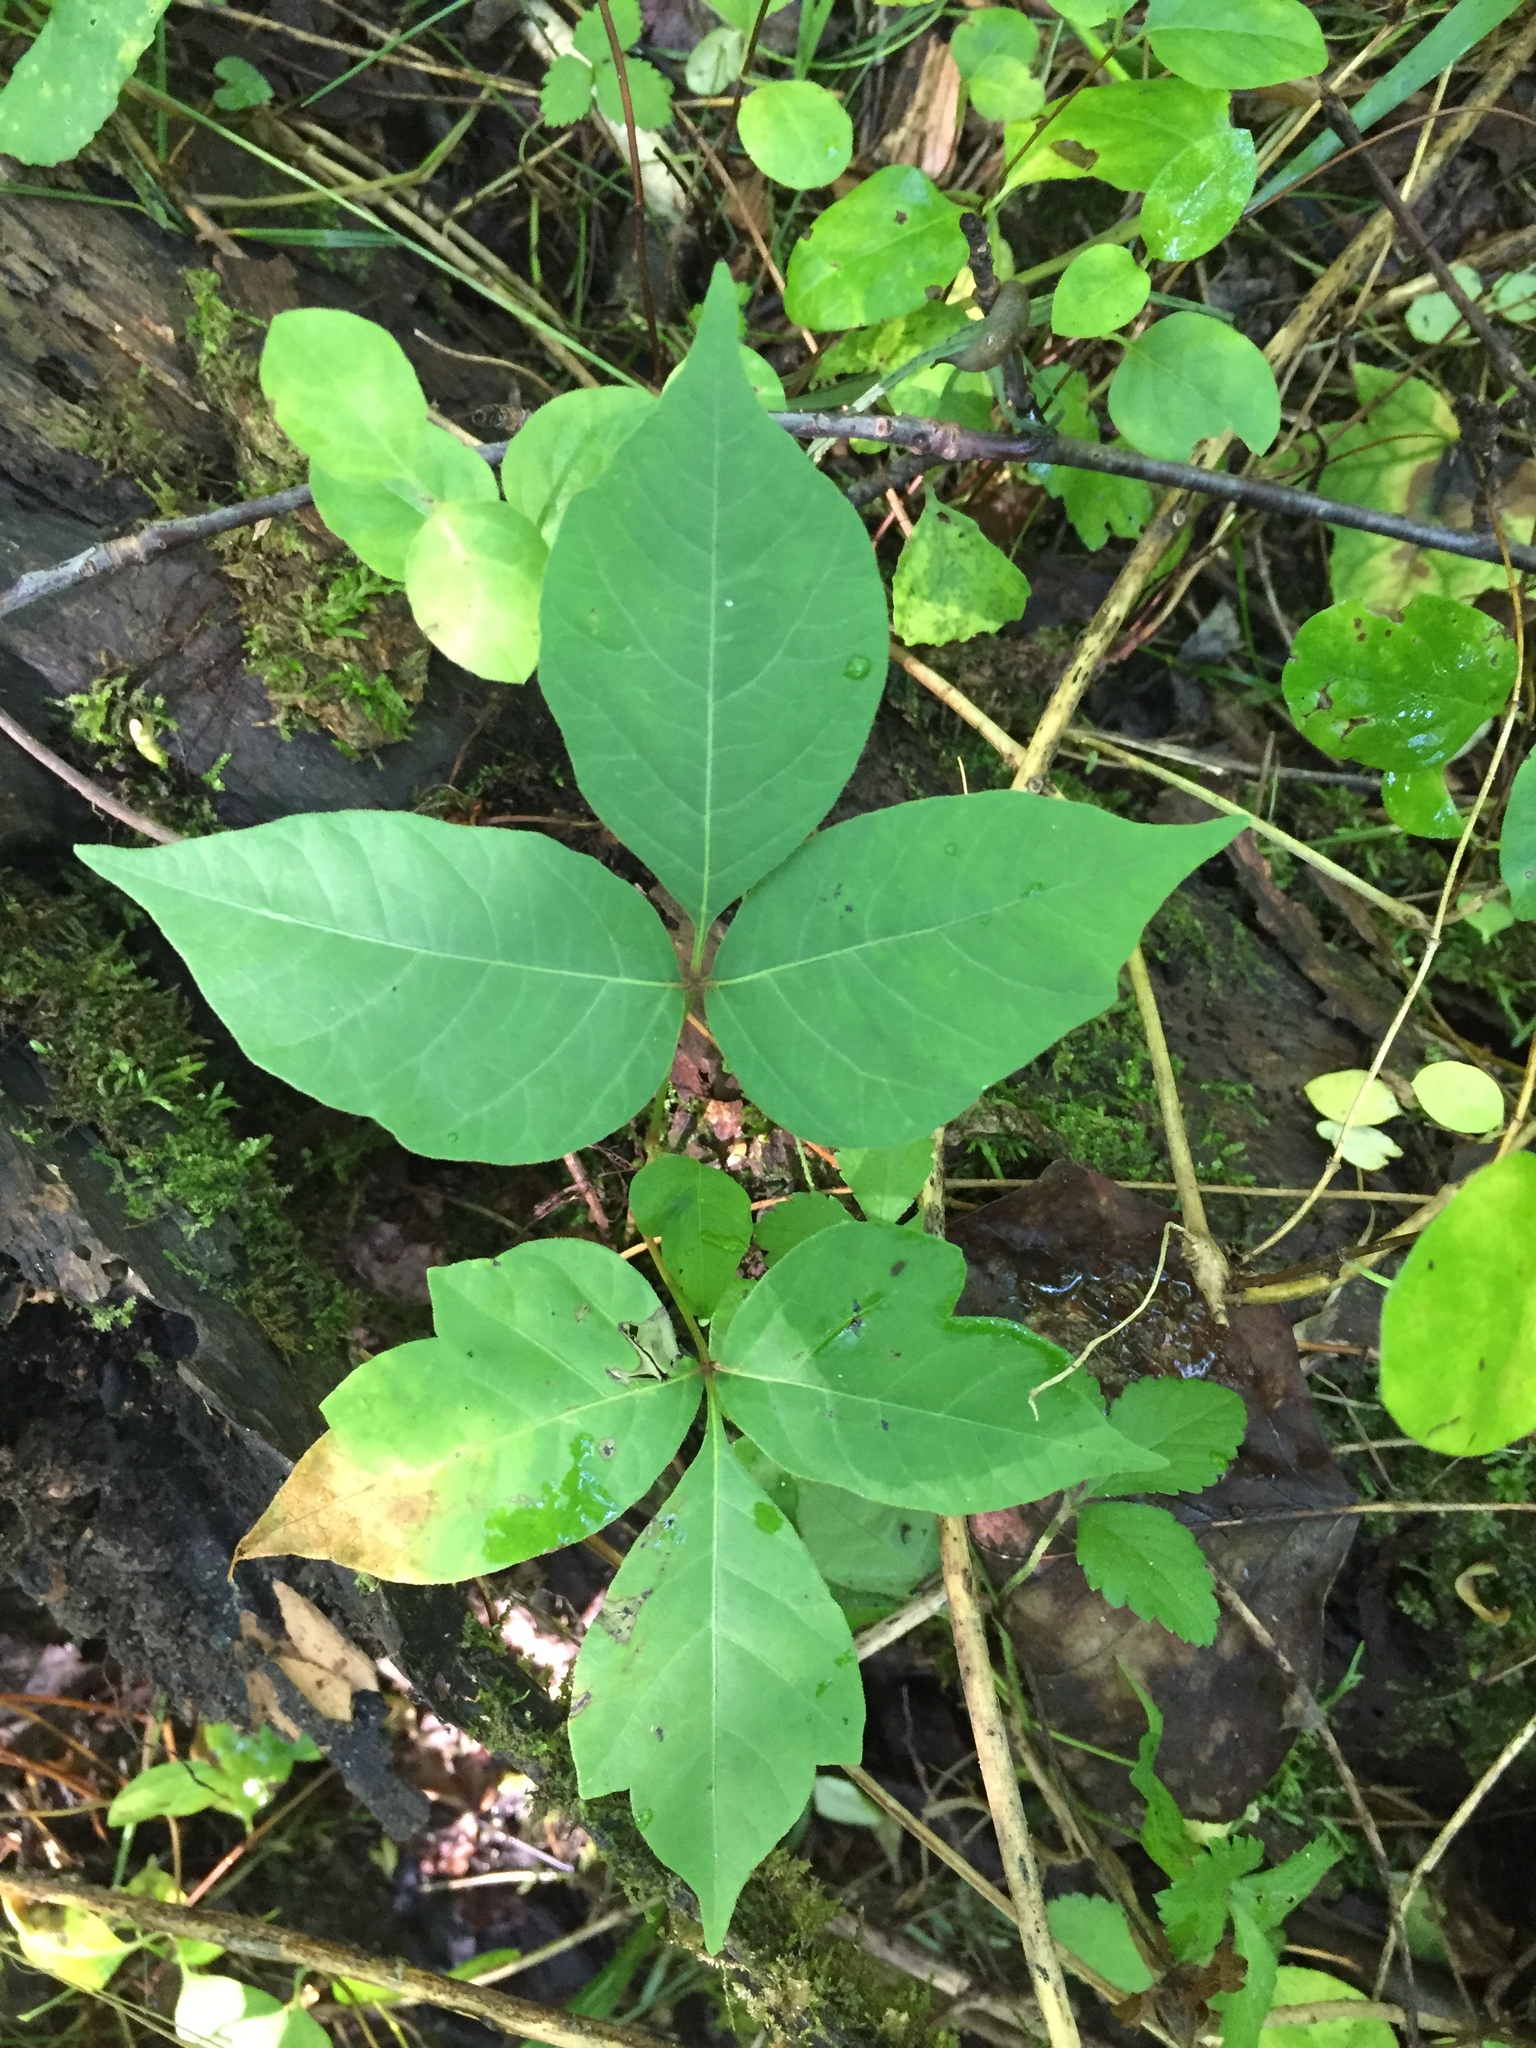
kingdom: Plantae
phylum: Tracheophyta
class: Magnoliopsida
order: Sapindales
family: Anacardiaceae
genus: Toxicodendron
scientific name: Toxicodendron radicans
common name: Poison ivy
